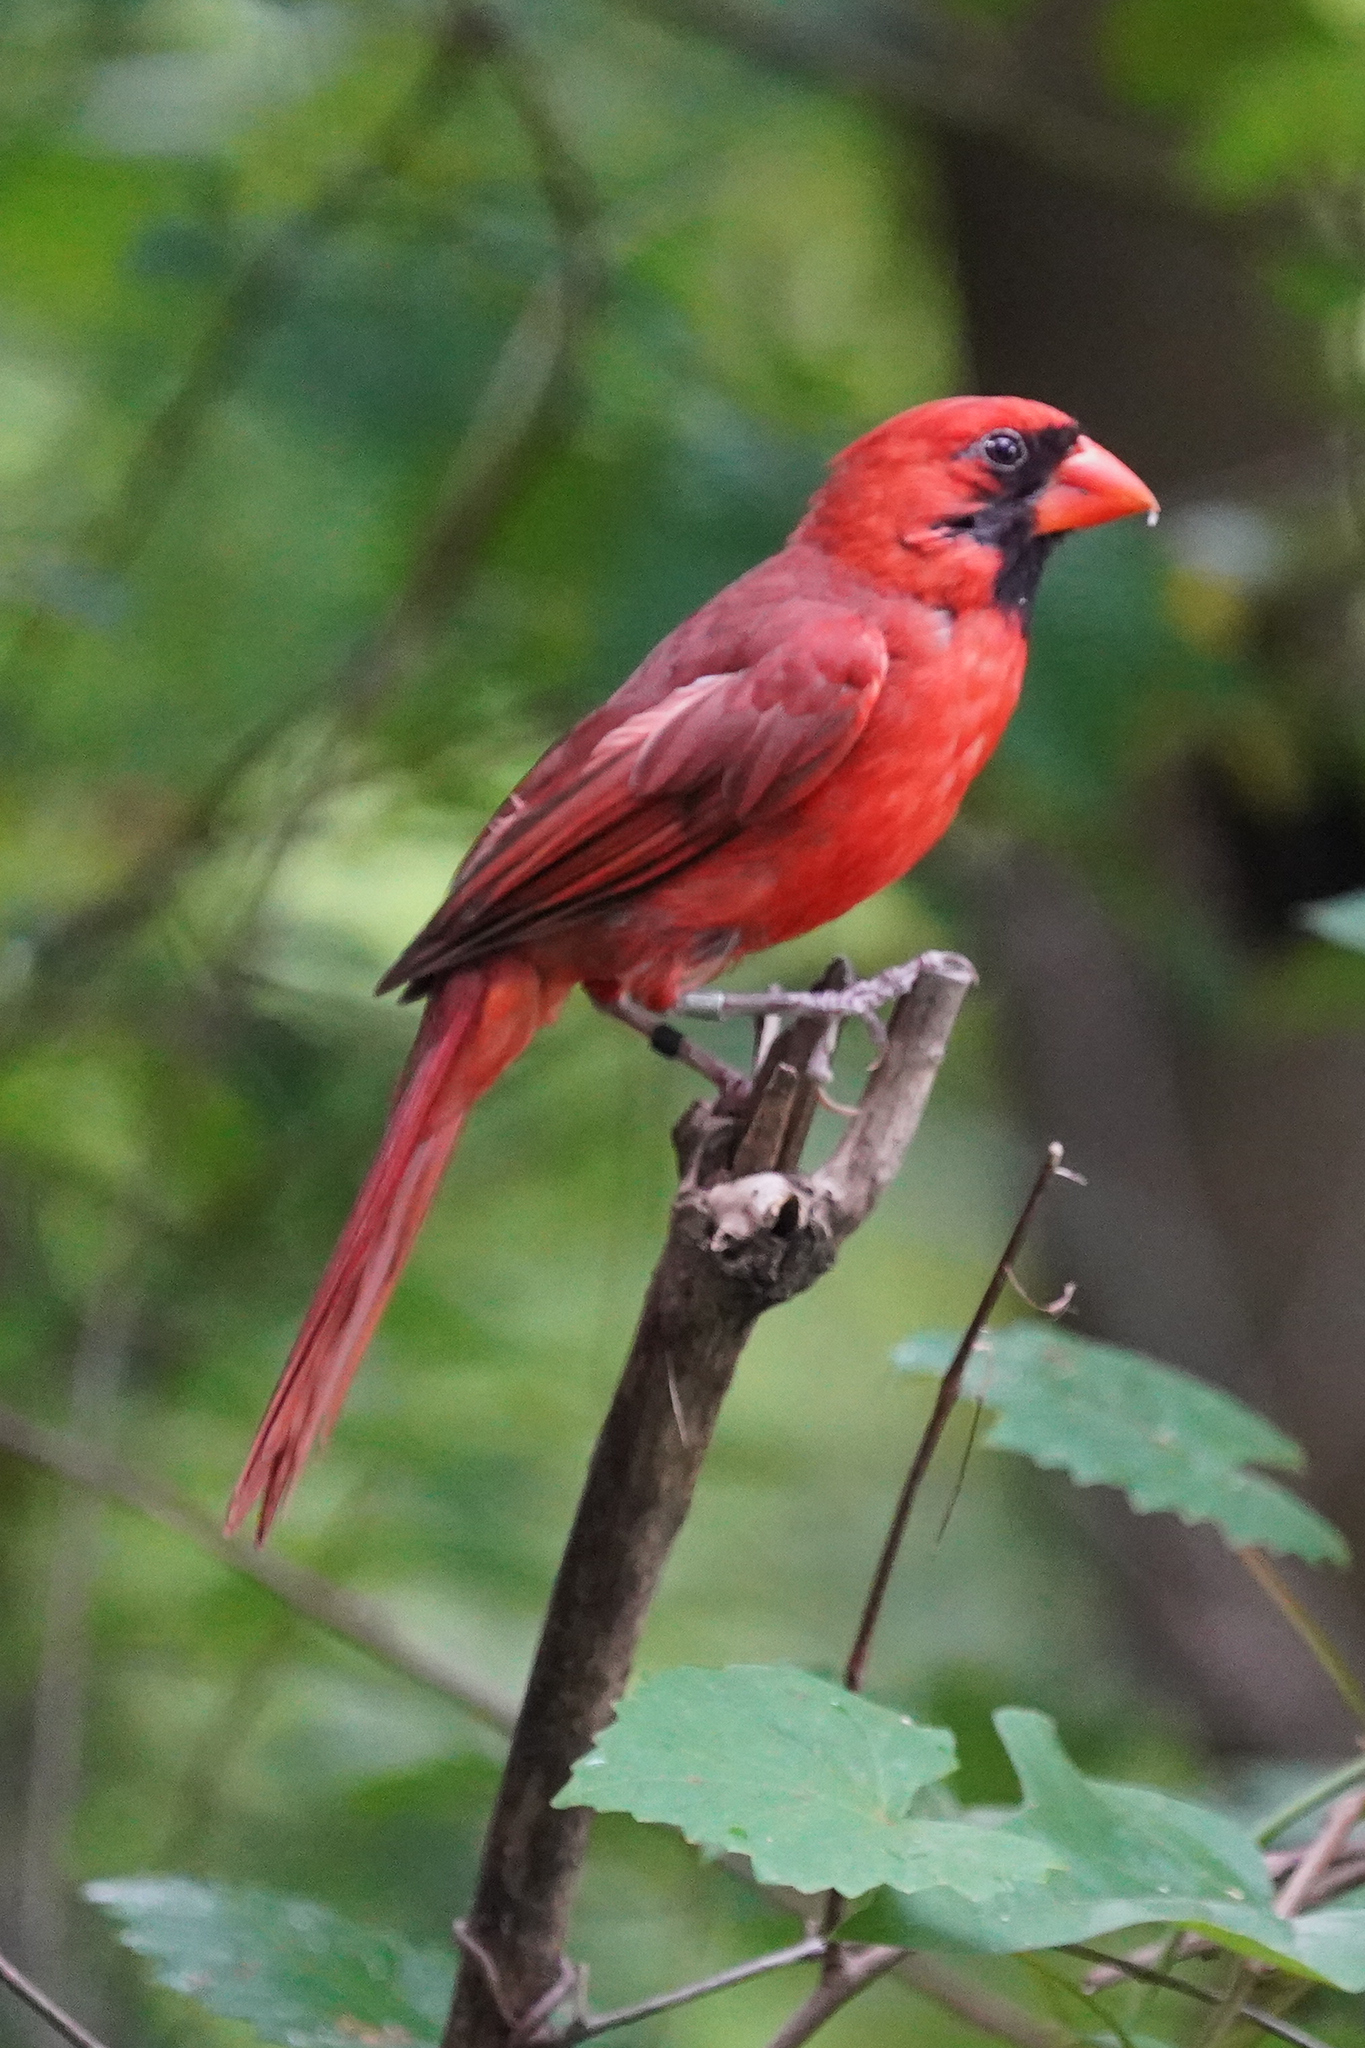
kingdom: Animalia
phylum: Chordata
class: Aves
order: Passeriformes
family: Cardinalidae
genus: Cardinalis
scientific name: Cardinalis cardinalis
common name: Northern cardinal
